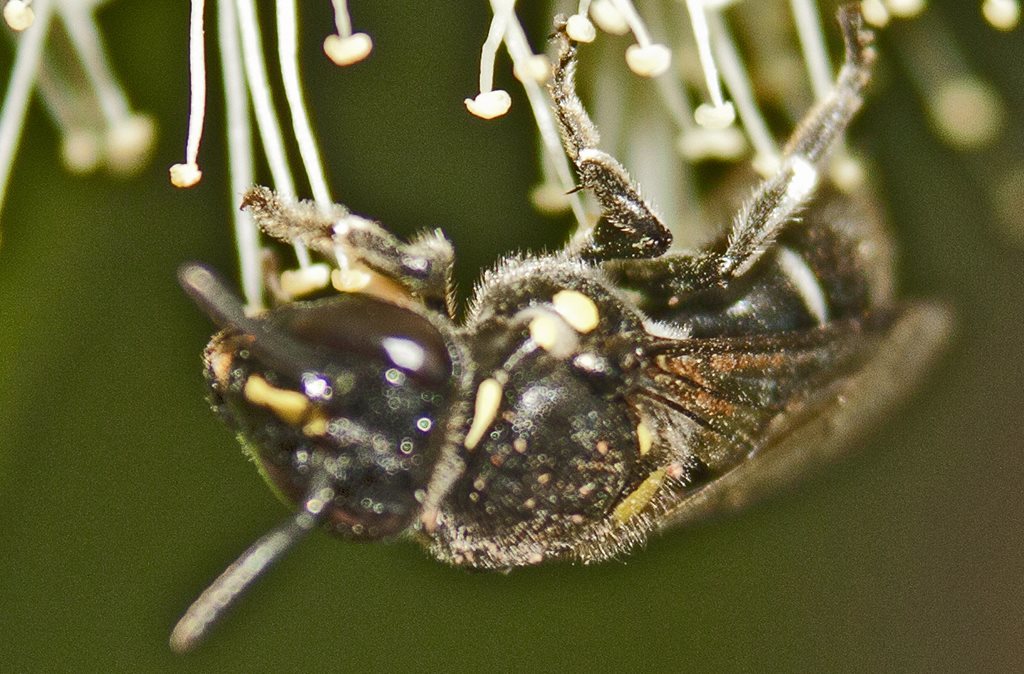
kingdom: Animalia
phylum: Arthropoda
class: Insecta
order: Hymenoptera
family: Colletidae
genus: Meroglossa
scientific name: Meroglossa impressifrons
